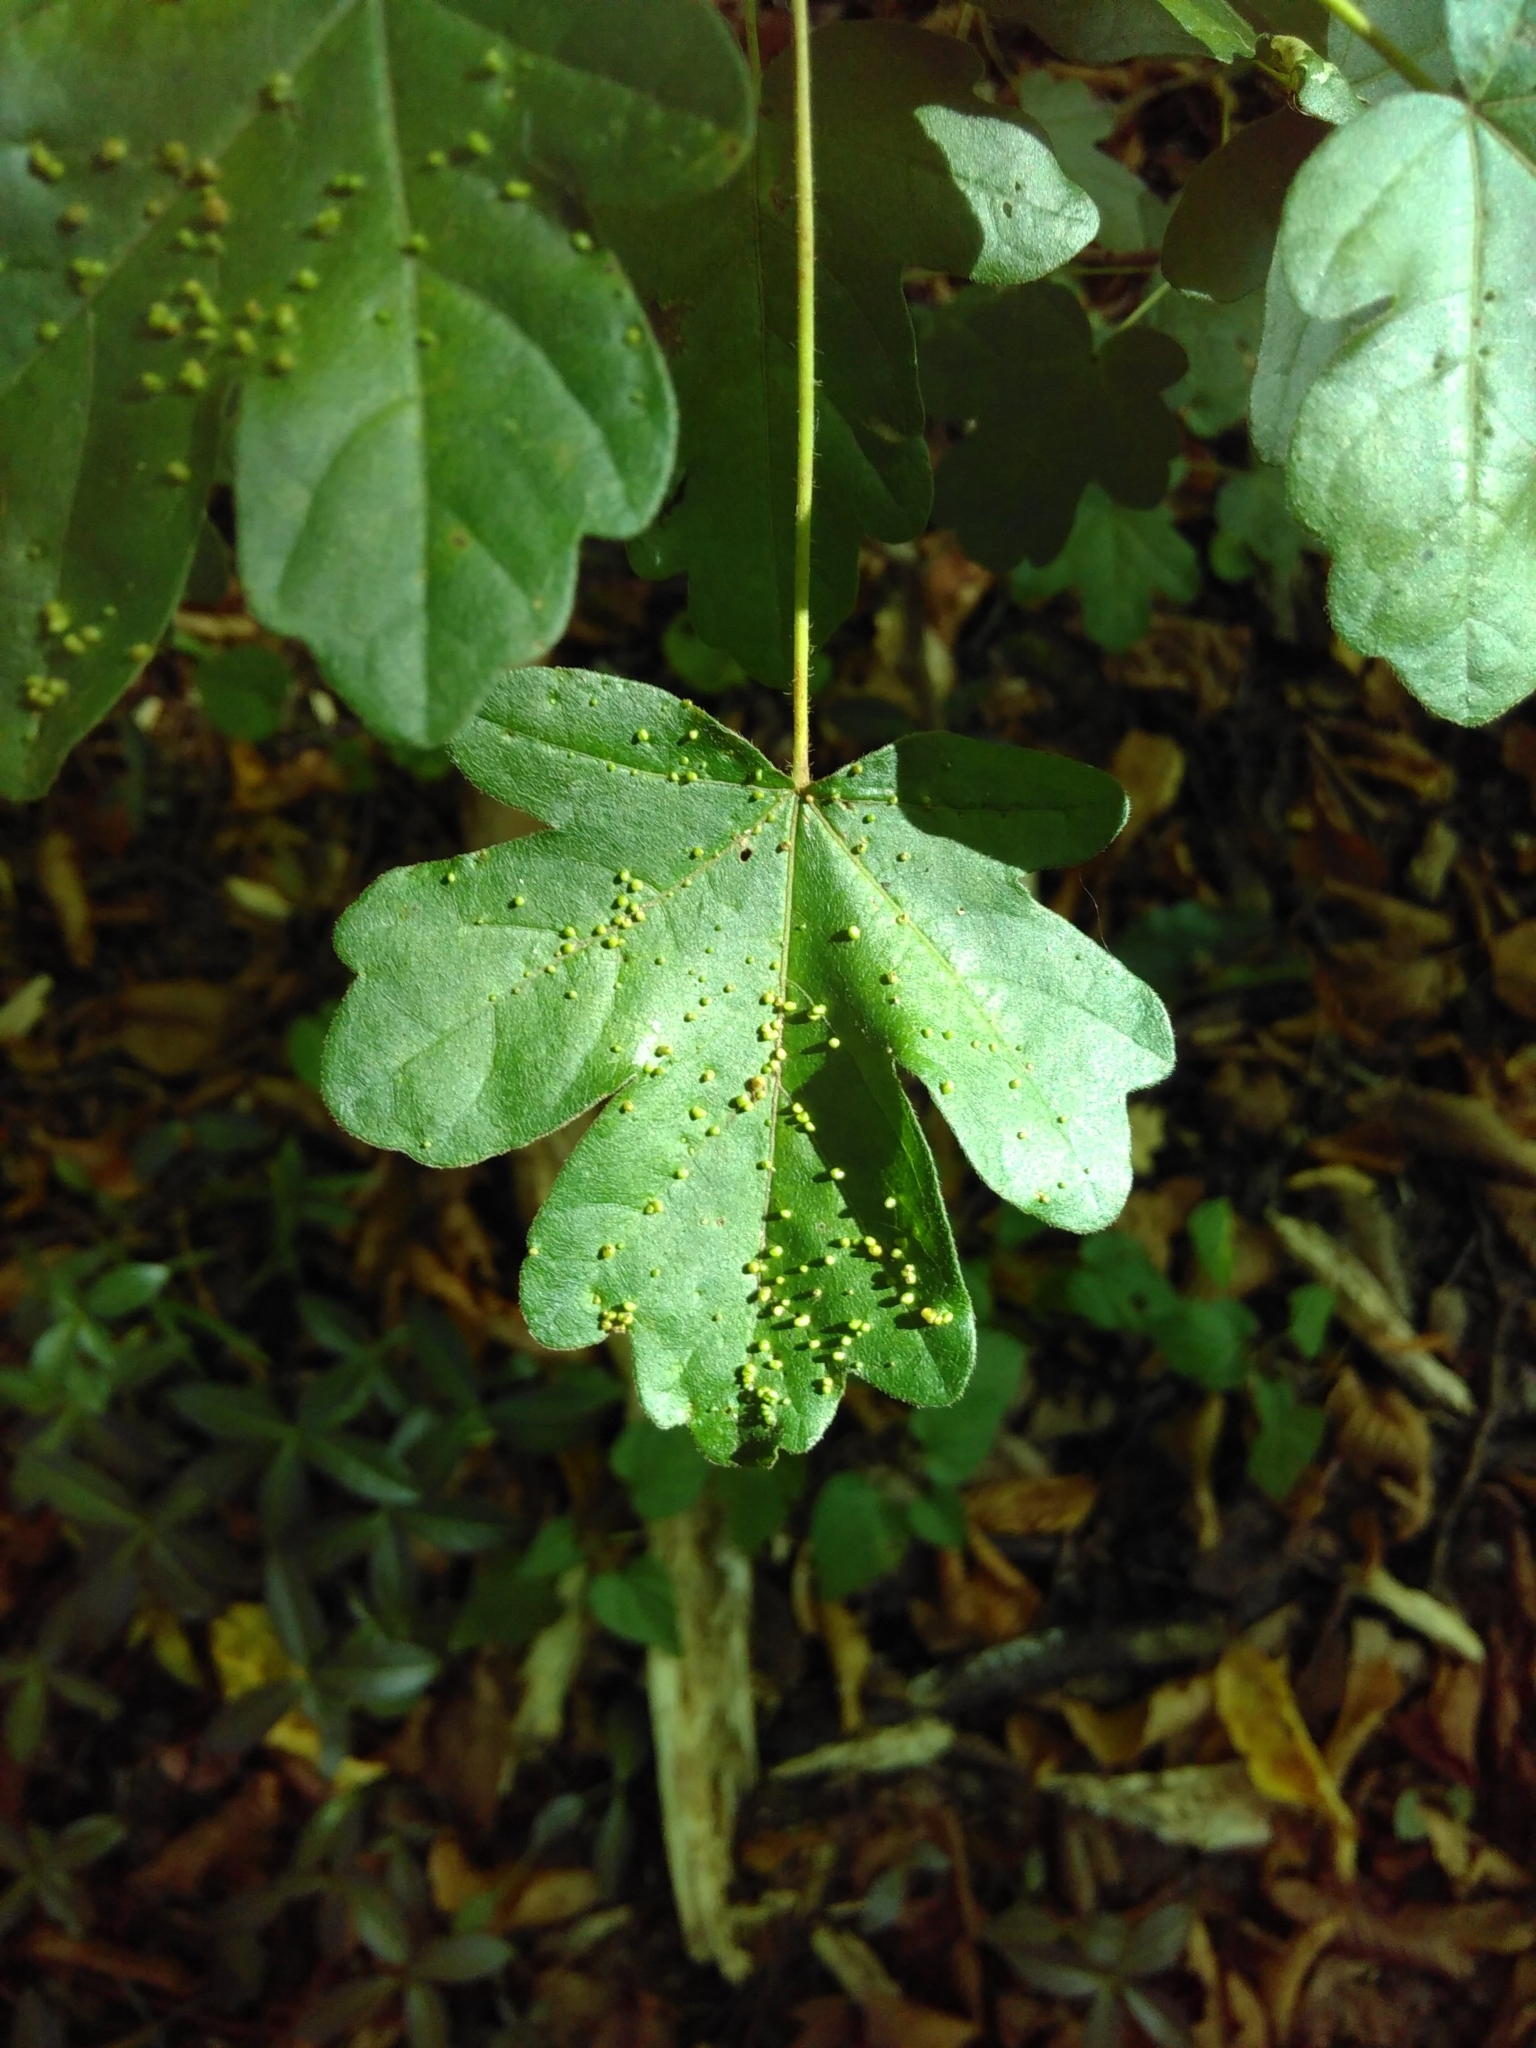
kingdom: Plantae
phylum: Tracheophyta
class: Magnoliopsida
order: Sapindales
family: Sapindaceae
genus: Acer
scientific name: Acer campestre
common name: Field maple
